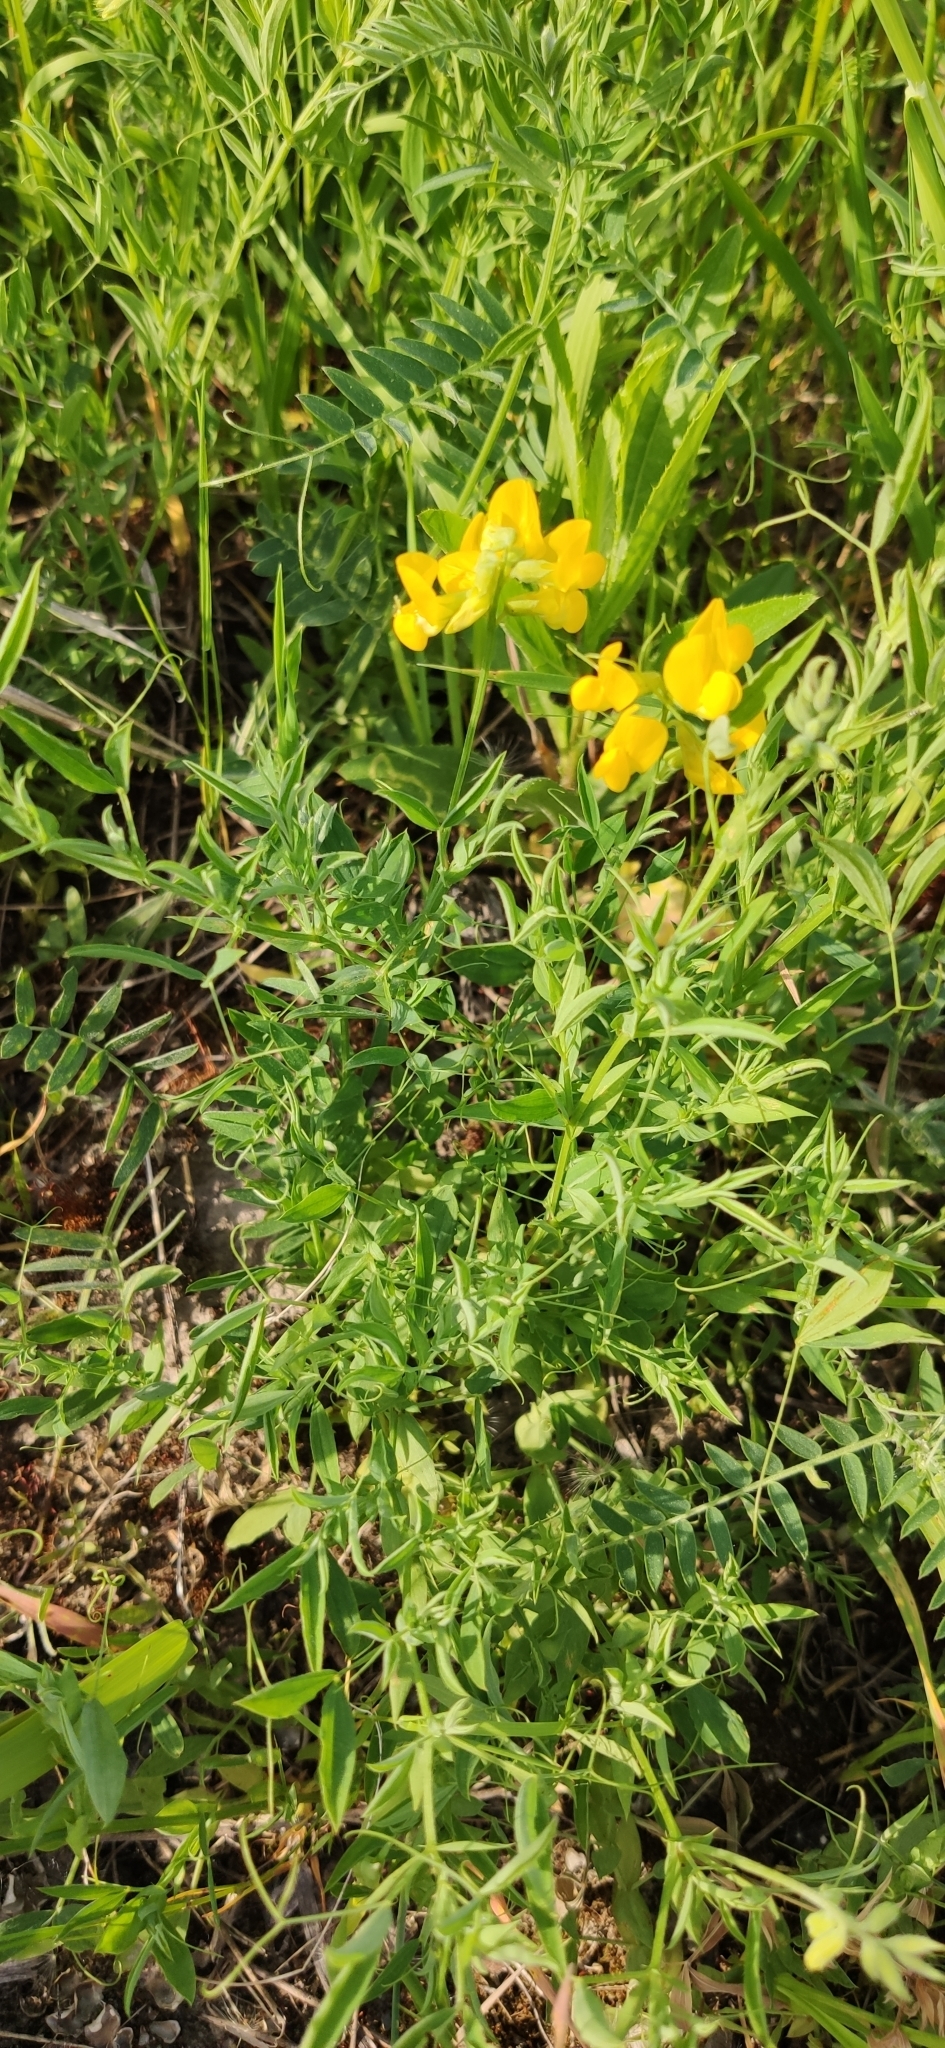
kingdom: Plantae
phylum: Tracheophyta
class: Magnoliopsida
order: Fabales
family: Fabaceae
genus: Lathyrus
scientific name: Lathyrus pratensis
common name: Meadow vetchling
